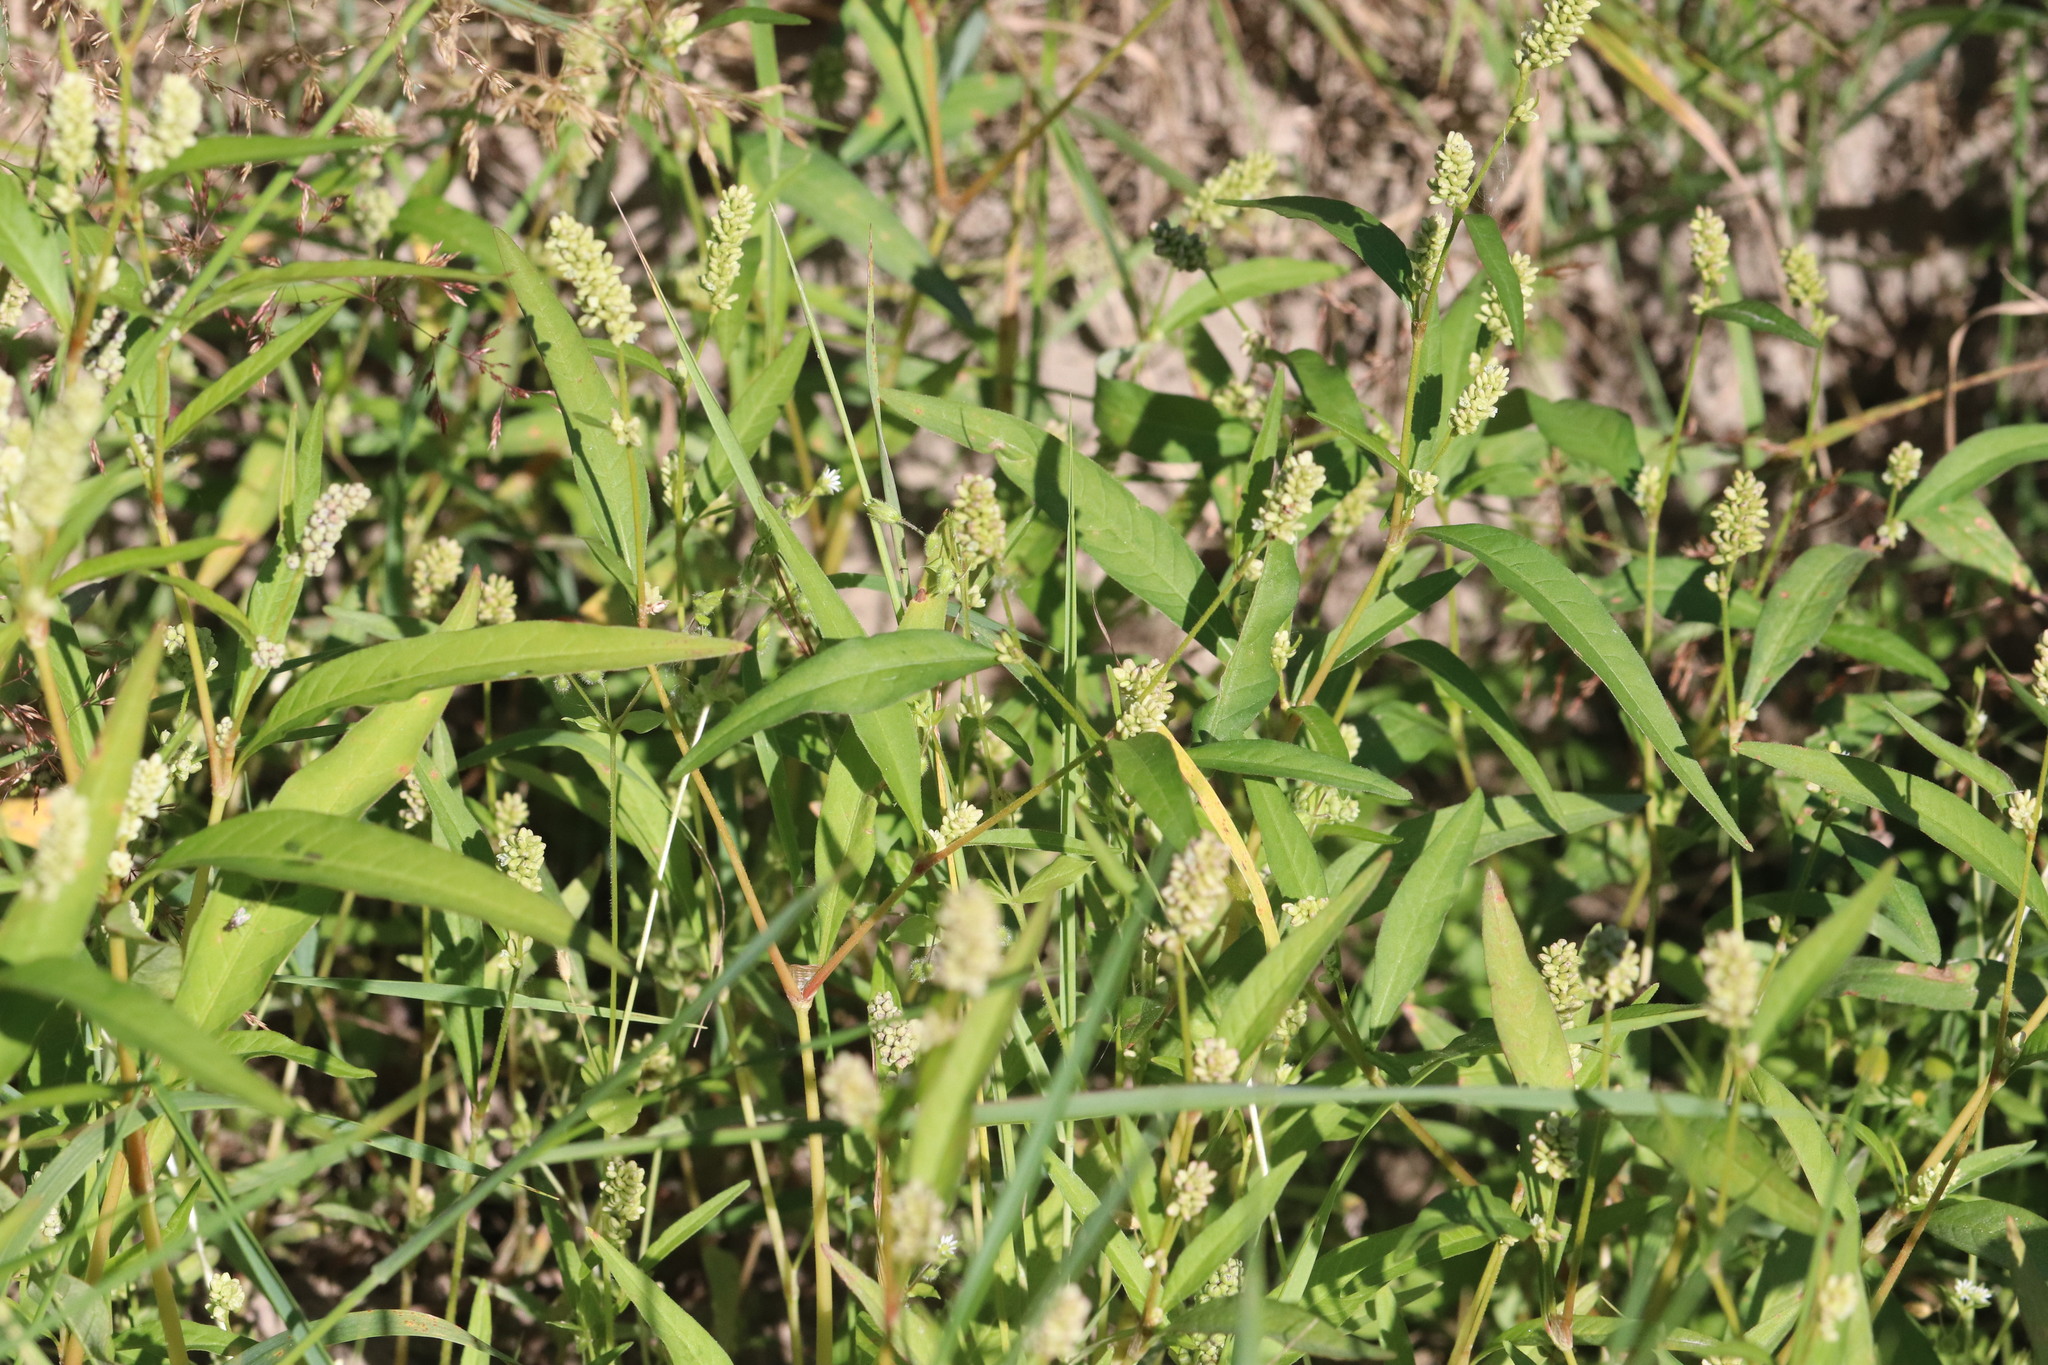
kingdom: Plantae
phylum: Tracheophyta
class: Magnoliopsida
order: Caryophyllales
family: Polygonaceae
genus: Persicaria
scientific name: Persicaria lapathifolia
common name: Curlytop knotweed
